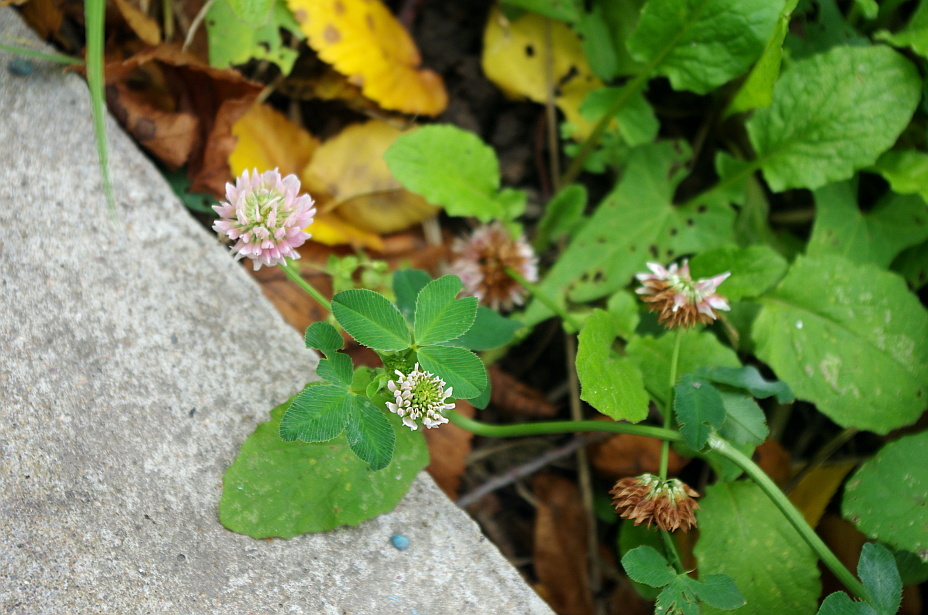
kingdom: Plantae
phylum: Tracheophyta
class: Magnoliopsida
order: Fabales
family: Fabaceae
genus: Trifolium
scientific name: Trifolium hybridum
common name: Alsike clover
